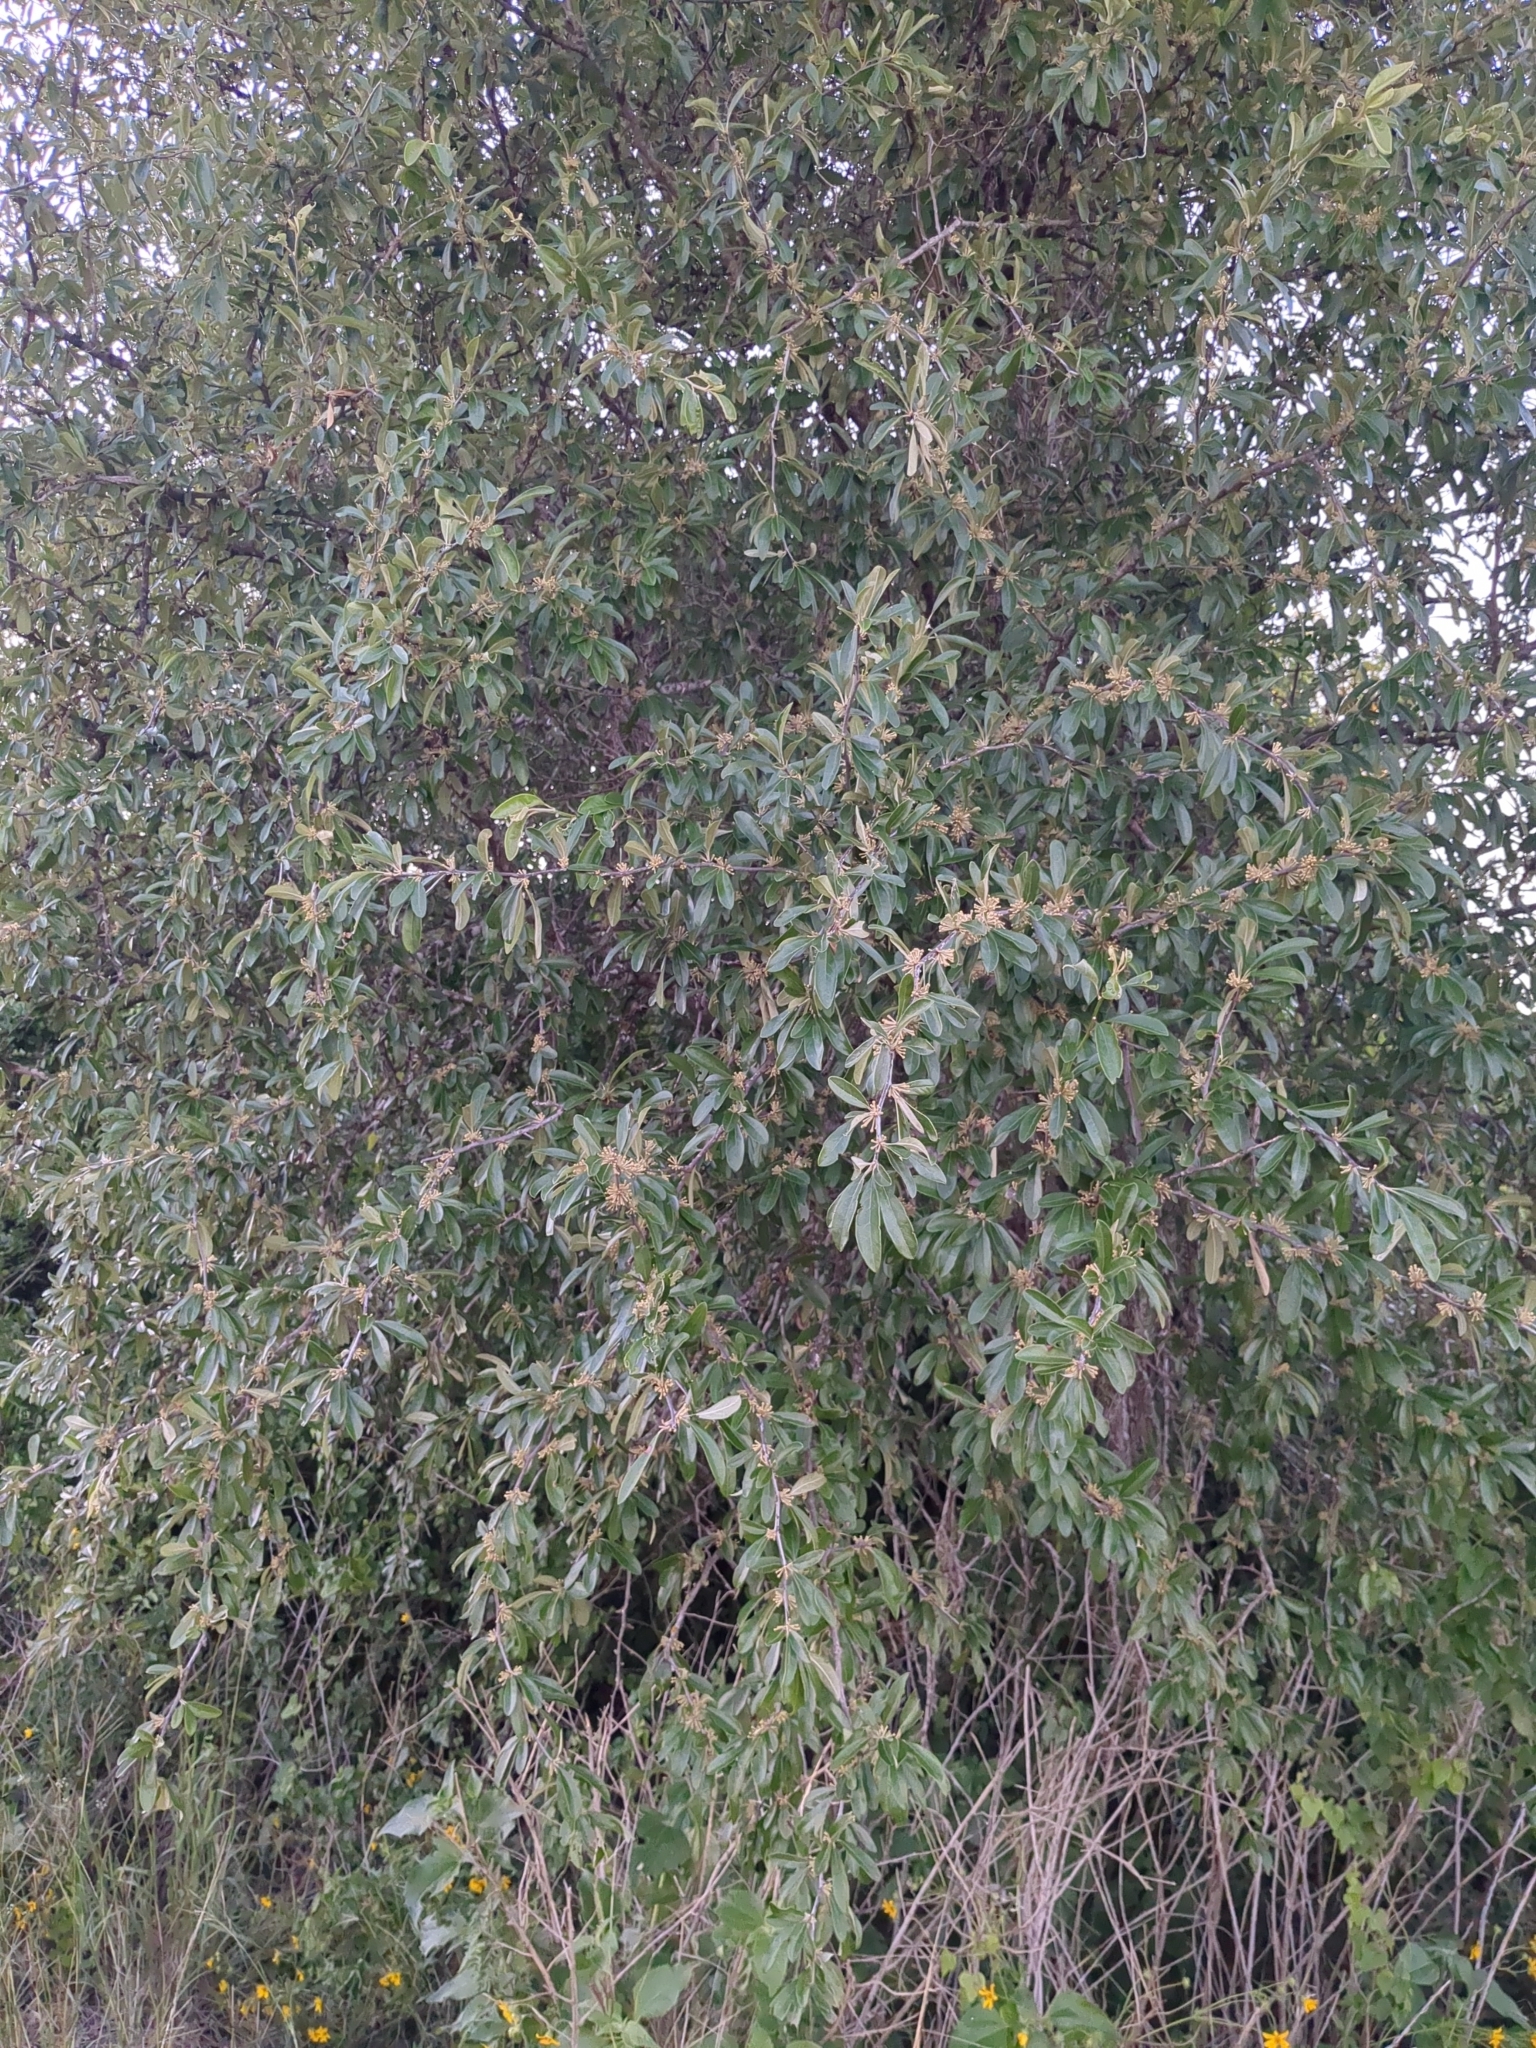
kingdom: Plantae
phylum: Tracheophyta
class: Magnoliopsida
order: Ericales
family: Sapotaceae
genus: Sideroxylon
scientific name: Sideroxylon lanuginosum
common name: Chittamwood
